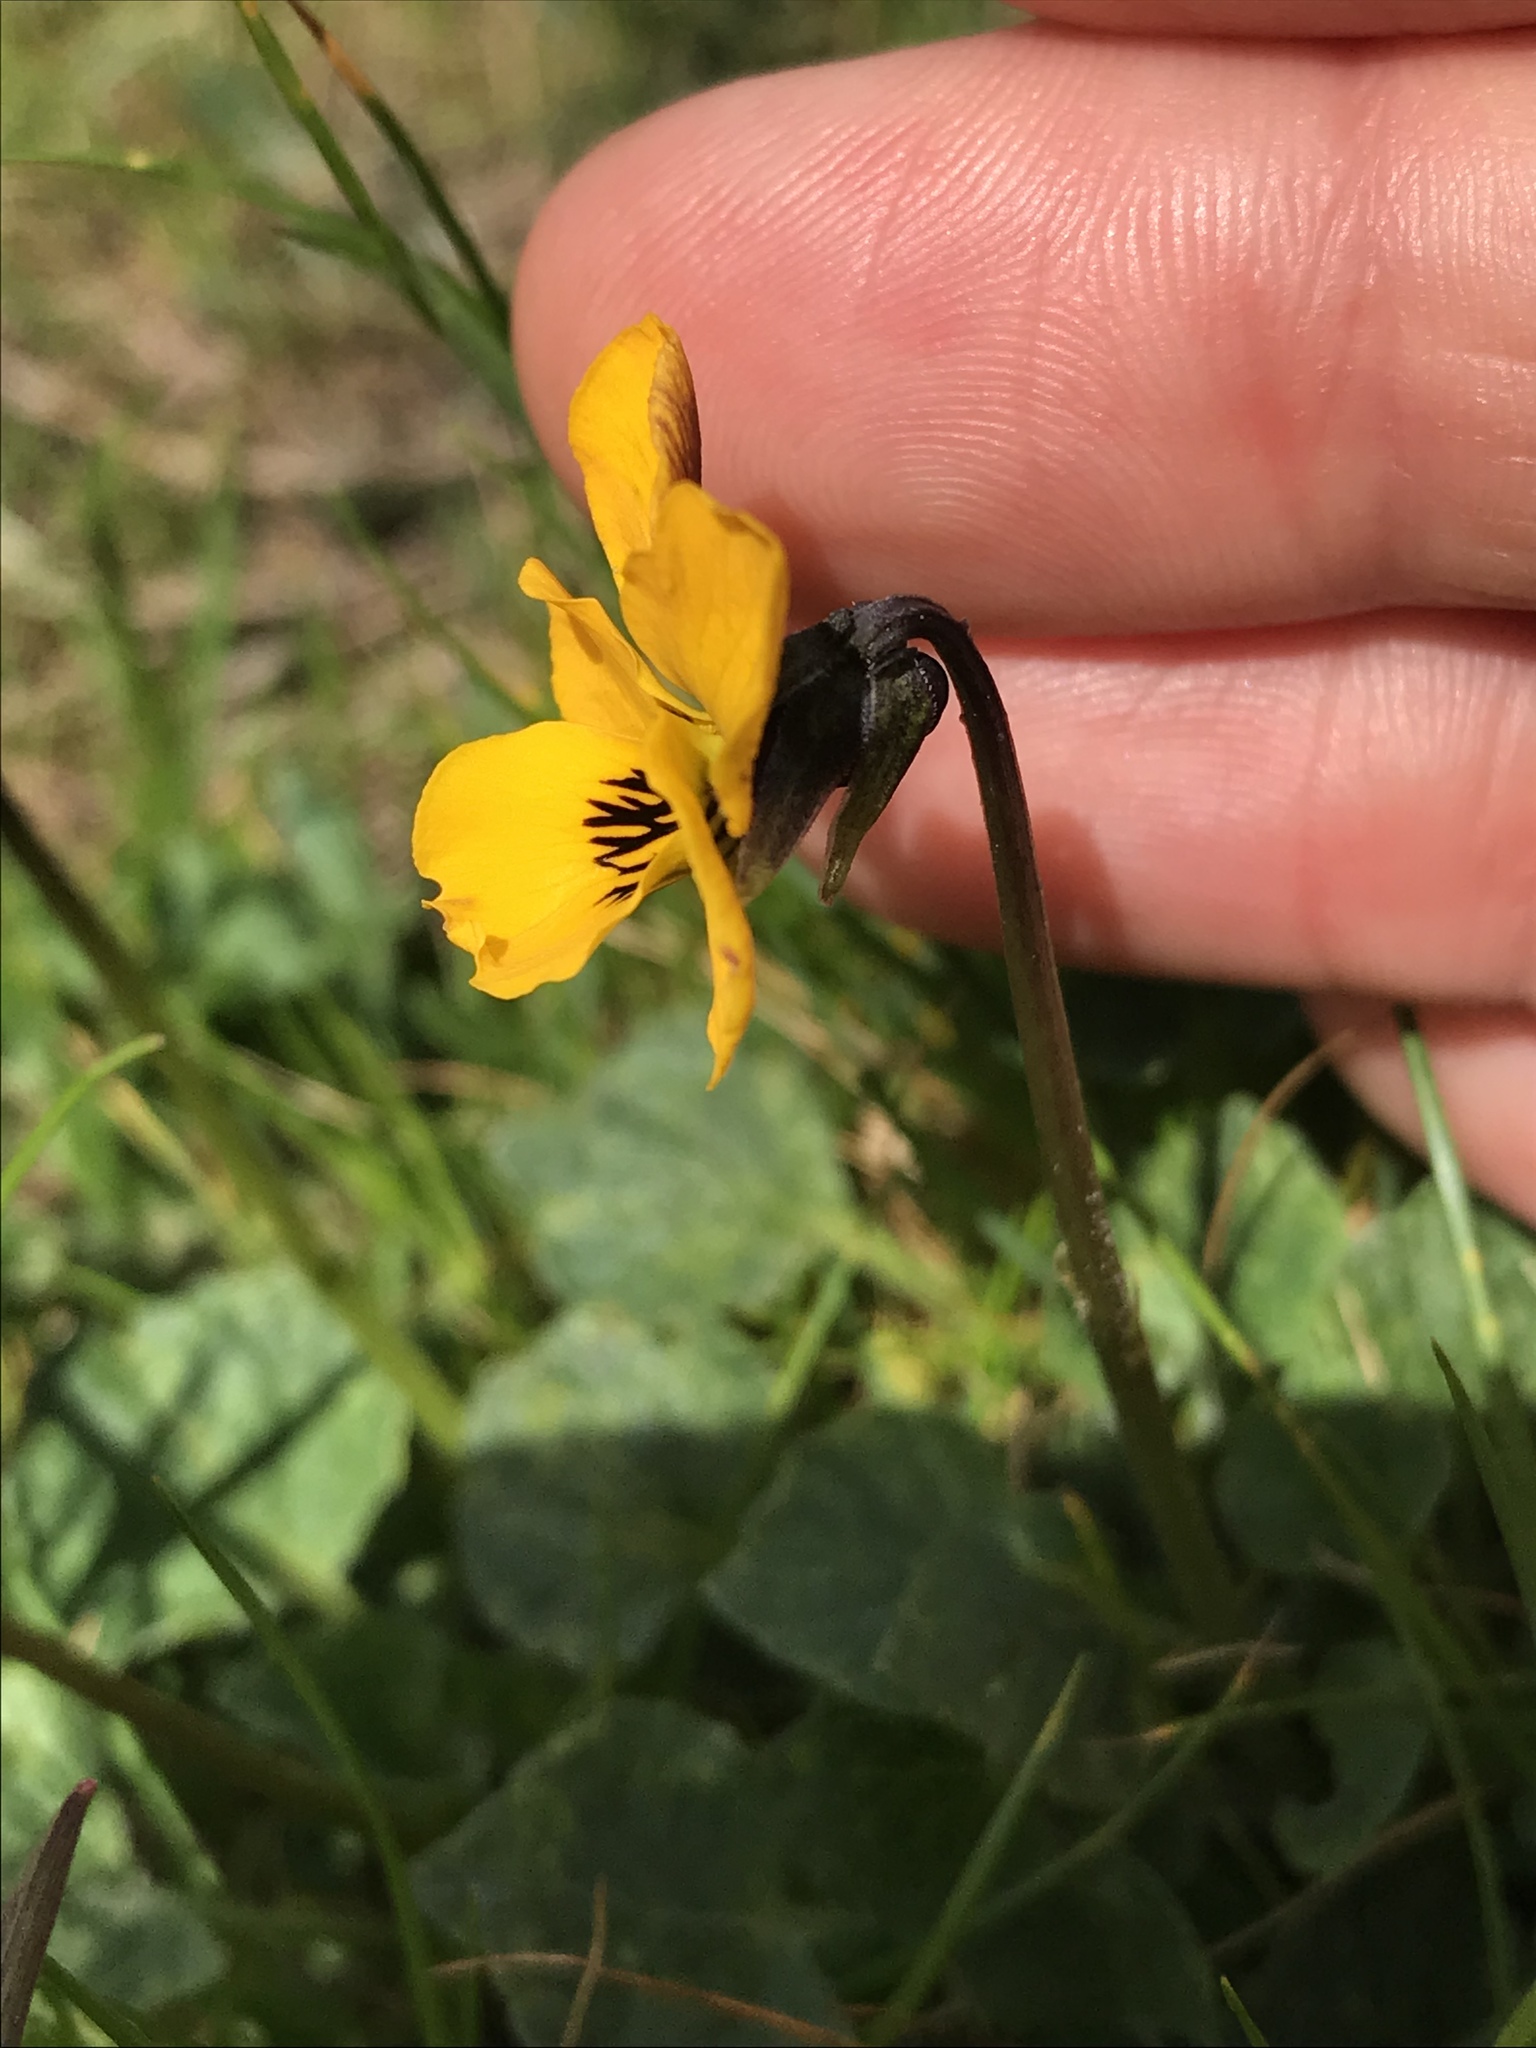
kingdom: Plantae
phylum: Tracheophyta
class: Magnoliopsida
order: Malpighiales
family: Violaceae
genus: Viola
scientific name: Viola pedunculata
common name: California golden violet
